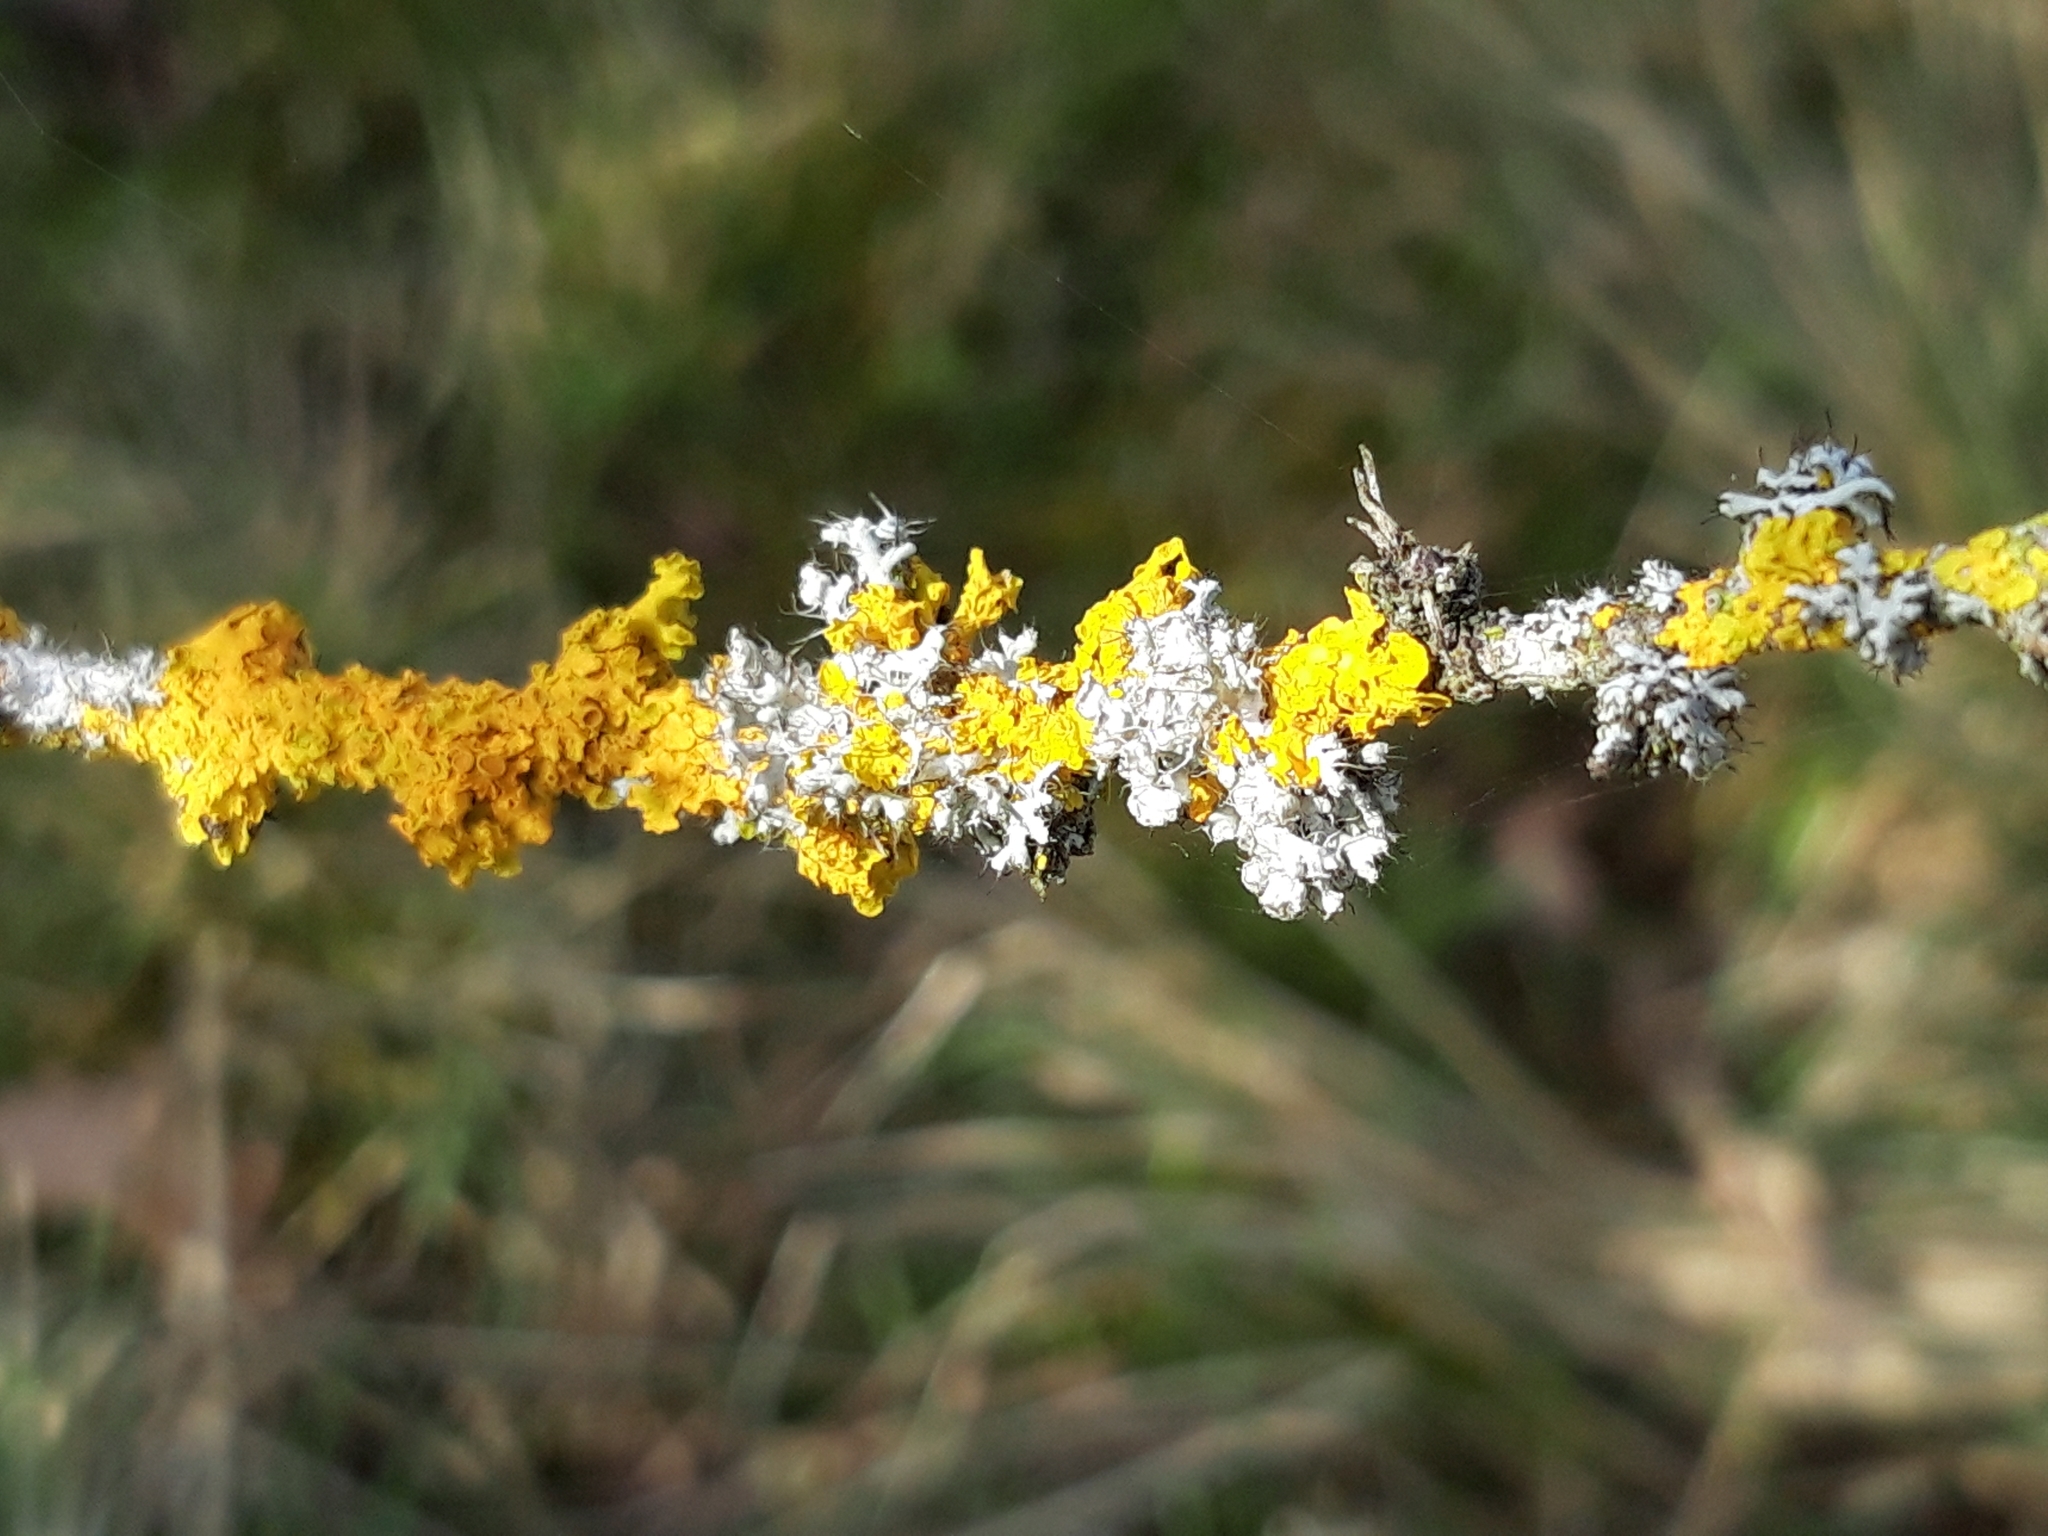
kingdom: Fungi
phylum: Ascomycota
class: Lecanoromycetes
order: Teloschistales
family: Teloschistaceae
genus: Xanthoria
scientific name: Xanthoria parietina
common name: Common orange lichen
